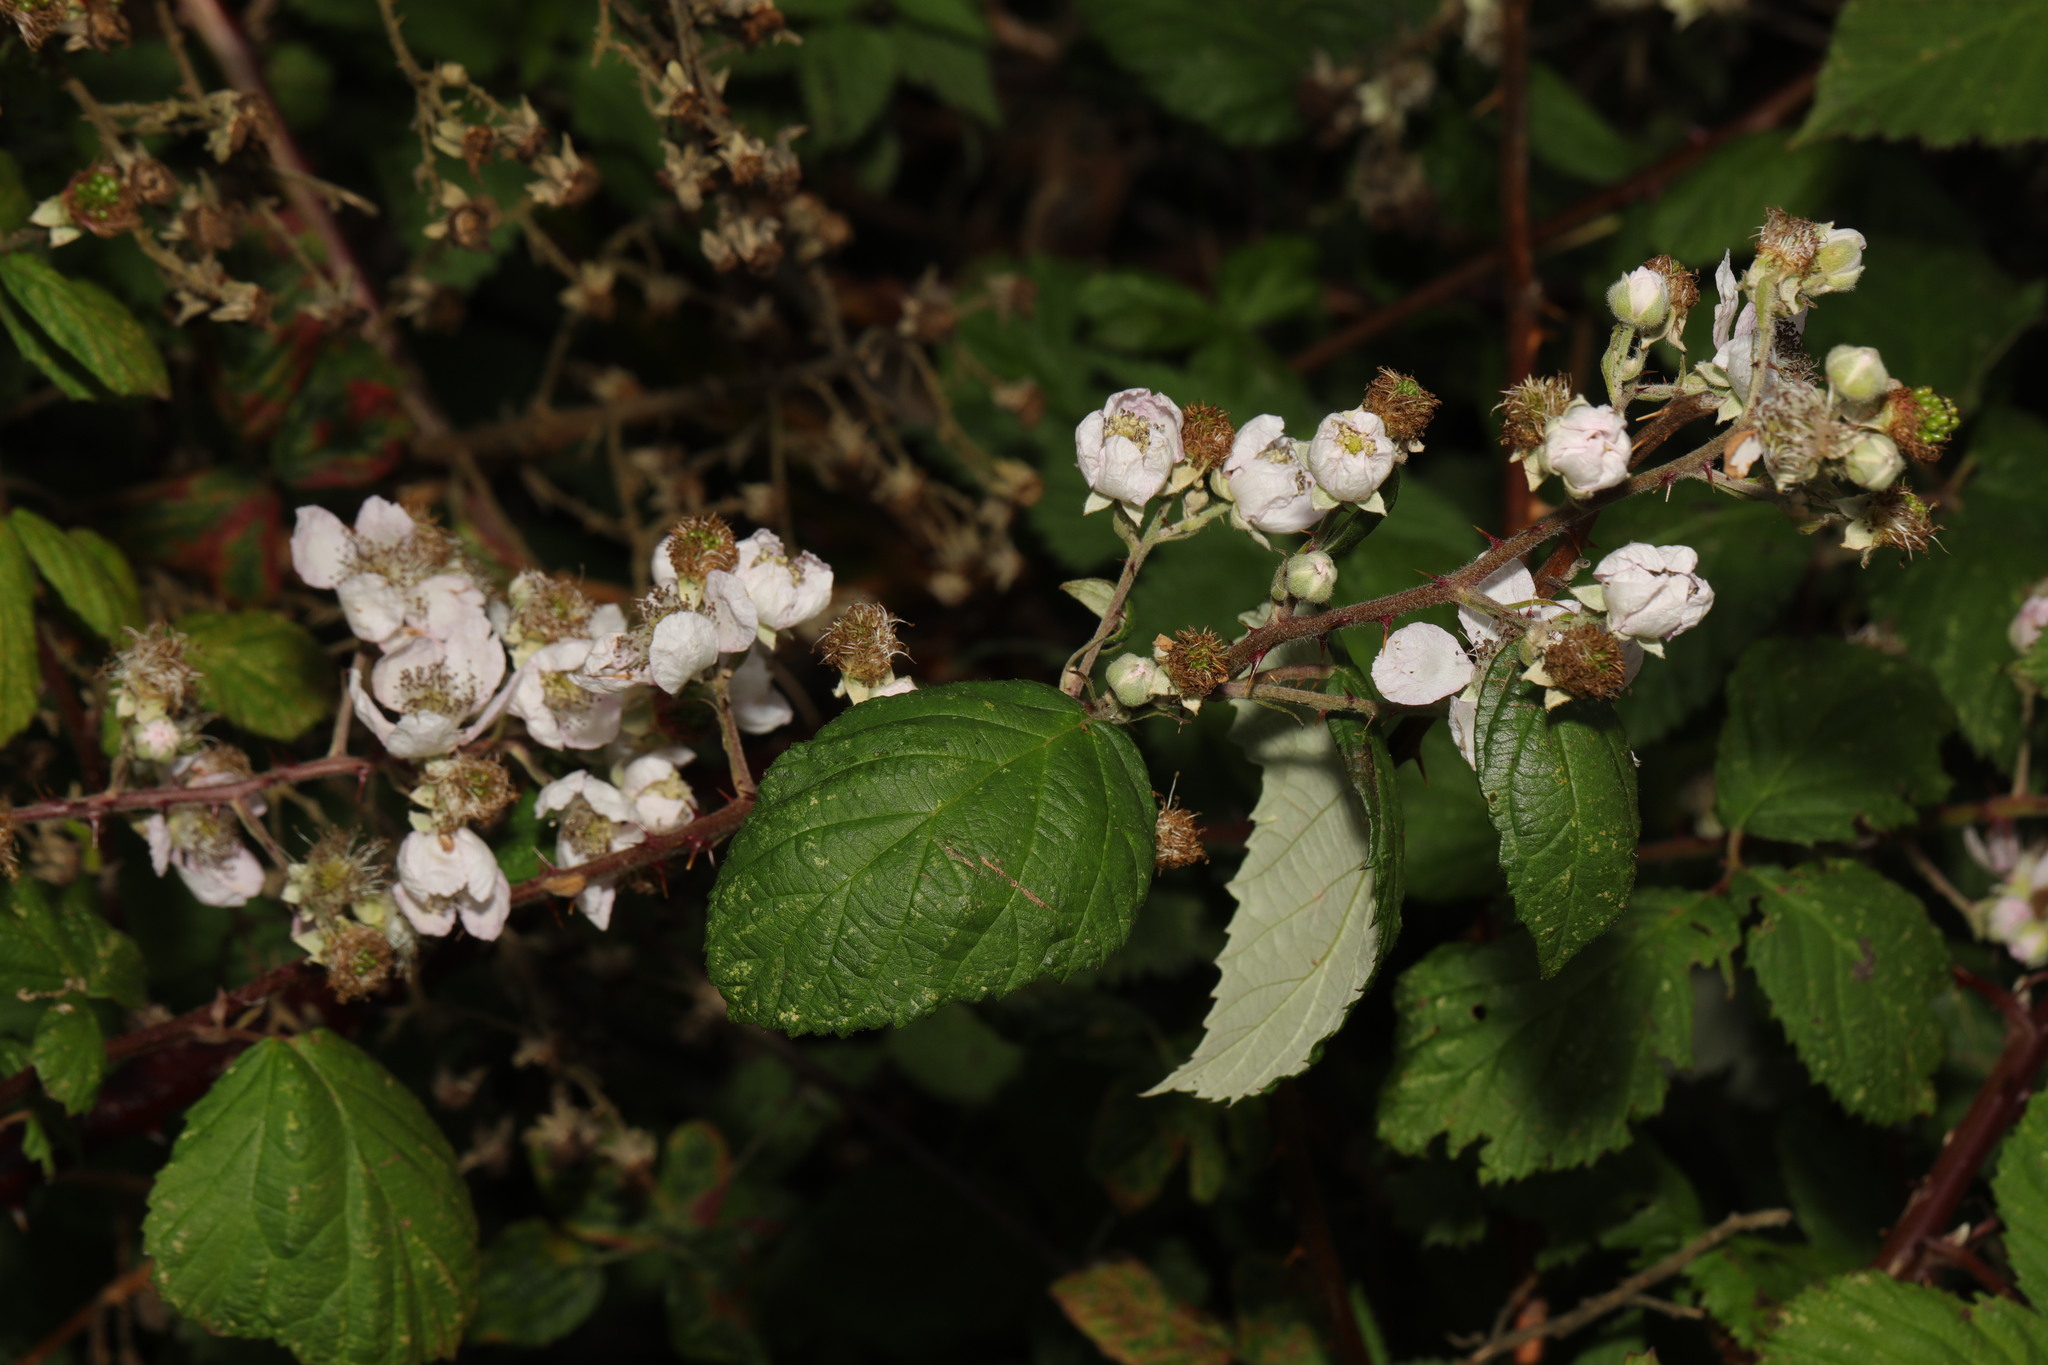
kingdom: Plantae
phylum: Tracheophyta
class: Magnoliopsida
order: Rosales
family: Rosaceae
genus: Rubus
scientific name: Rubus armeniacus
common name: Himalayan blackberry
